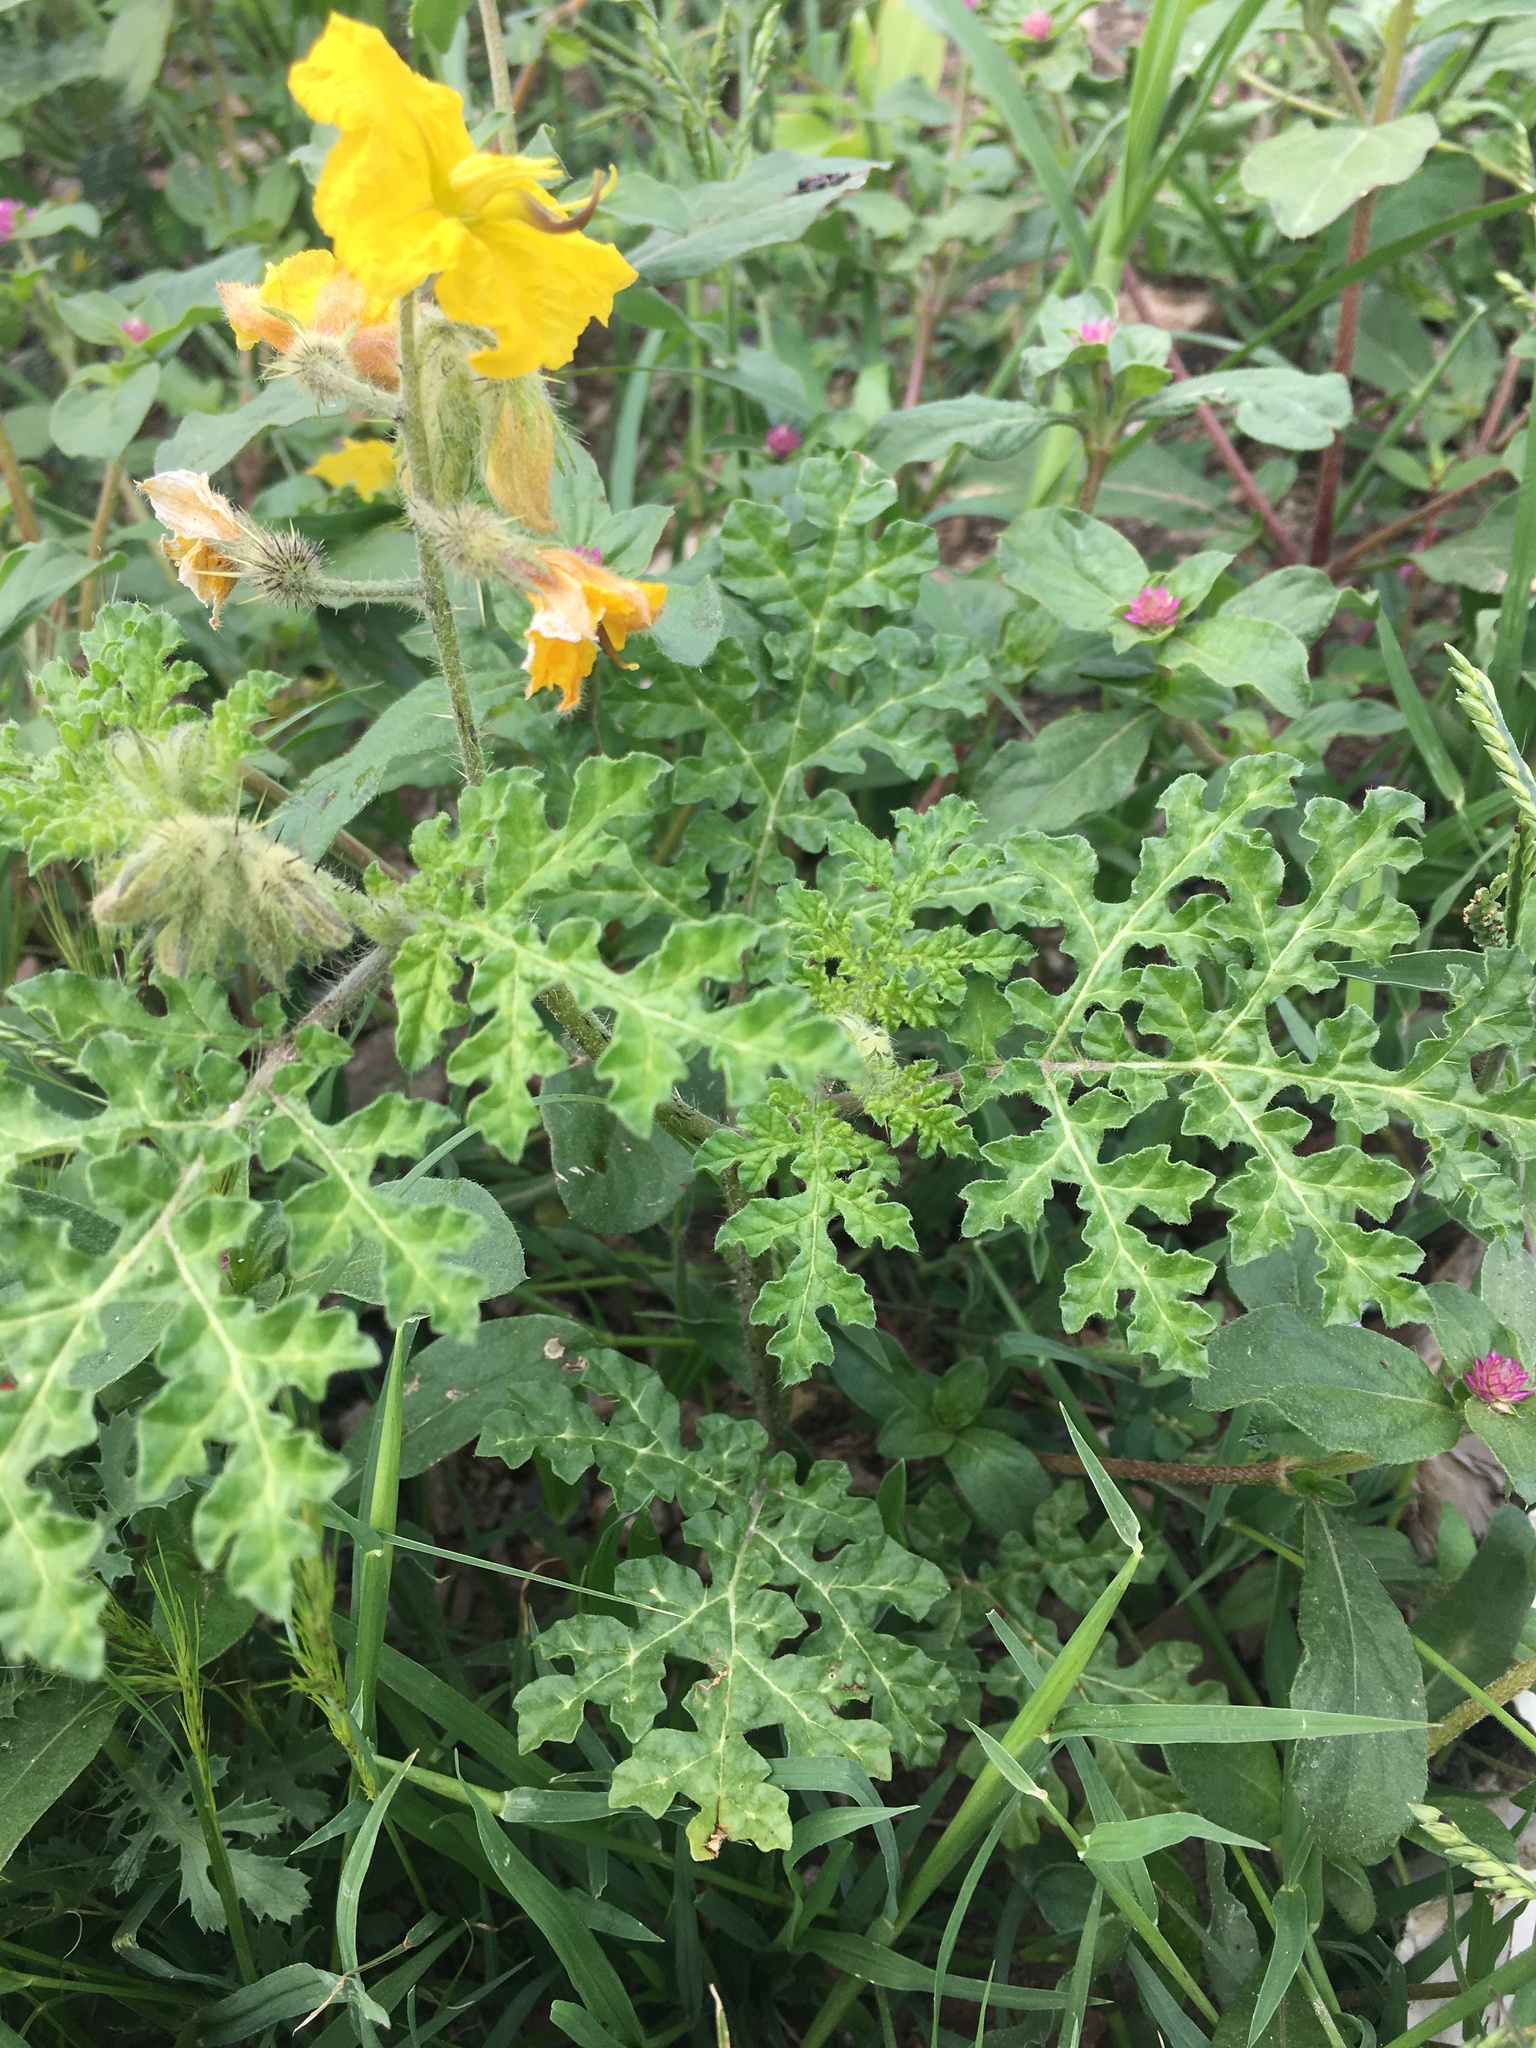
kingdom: Plantae
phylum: Tracheophyta
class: Magnoliopsida
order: Solanales
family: Solanaceae
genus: Solanum
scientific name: Solanum angustifolium
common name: Buffalobur nightshade
